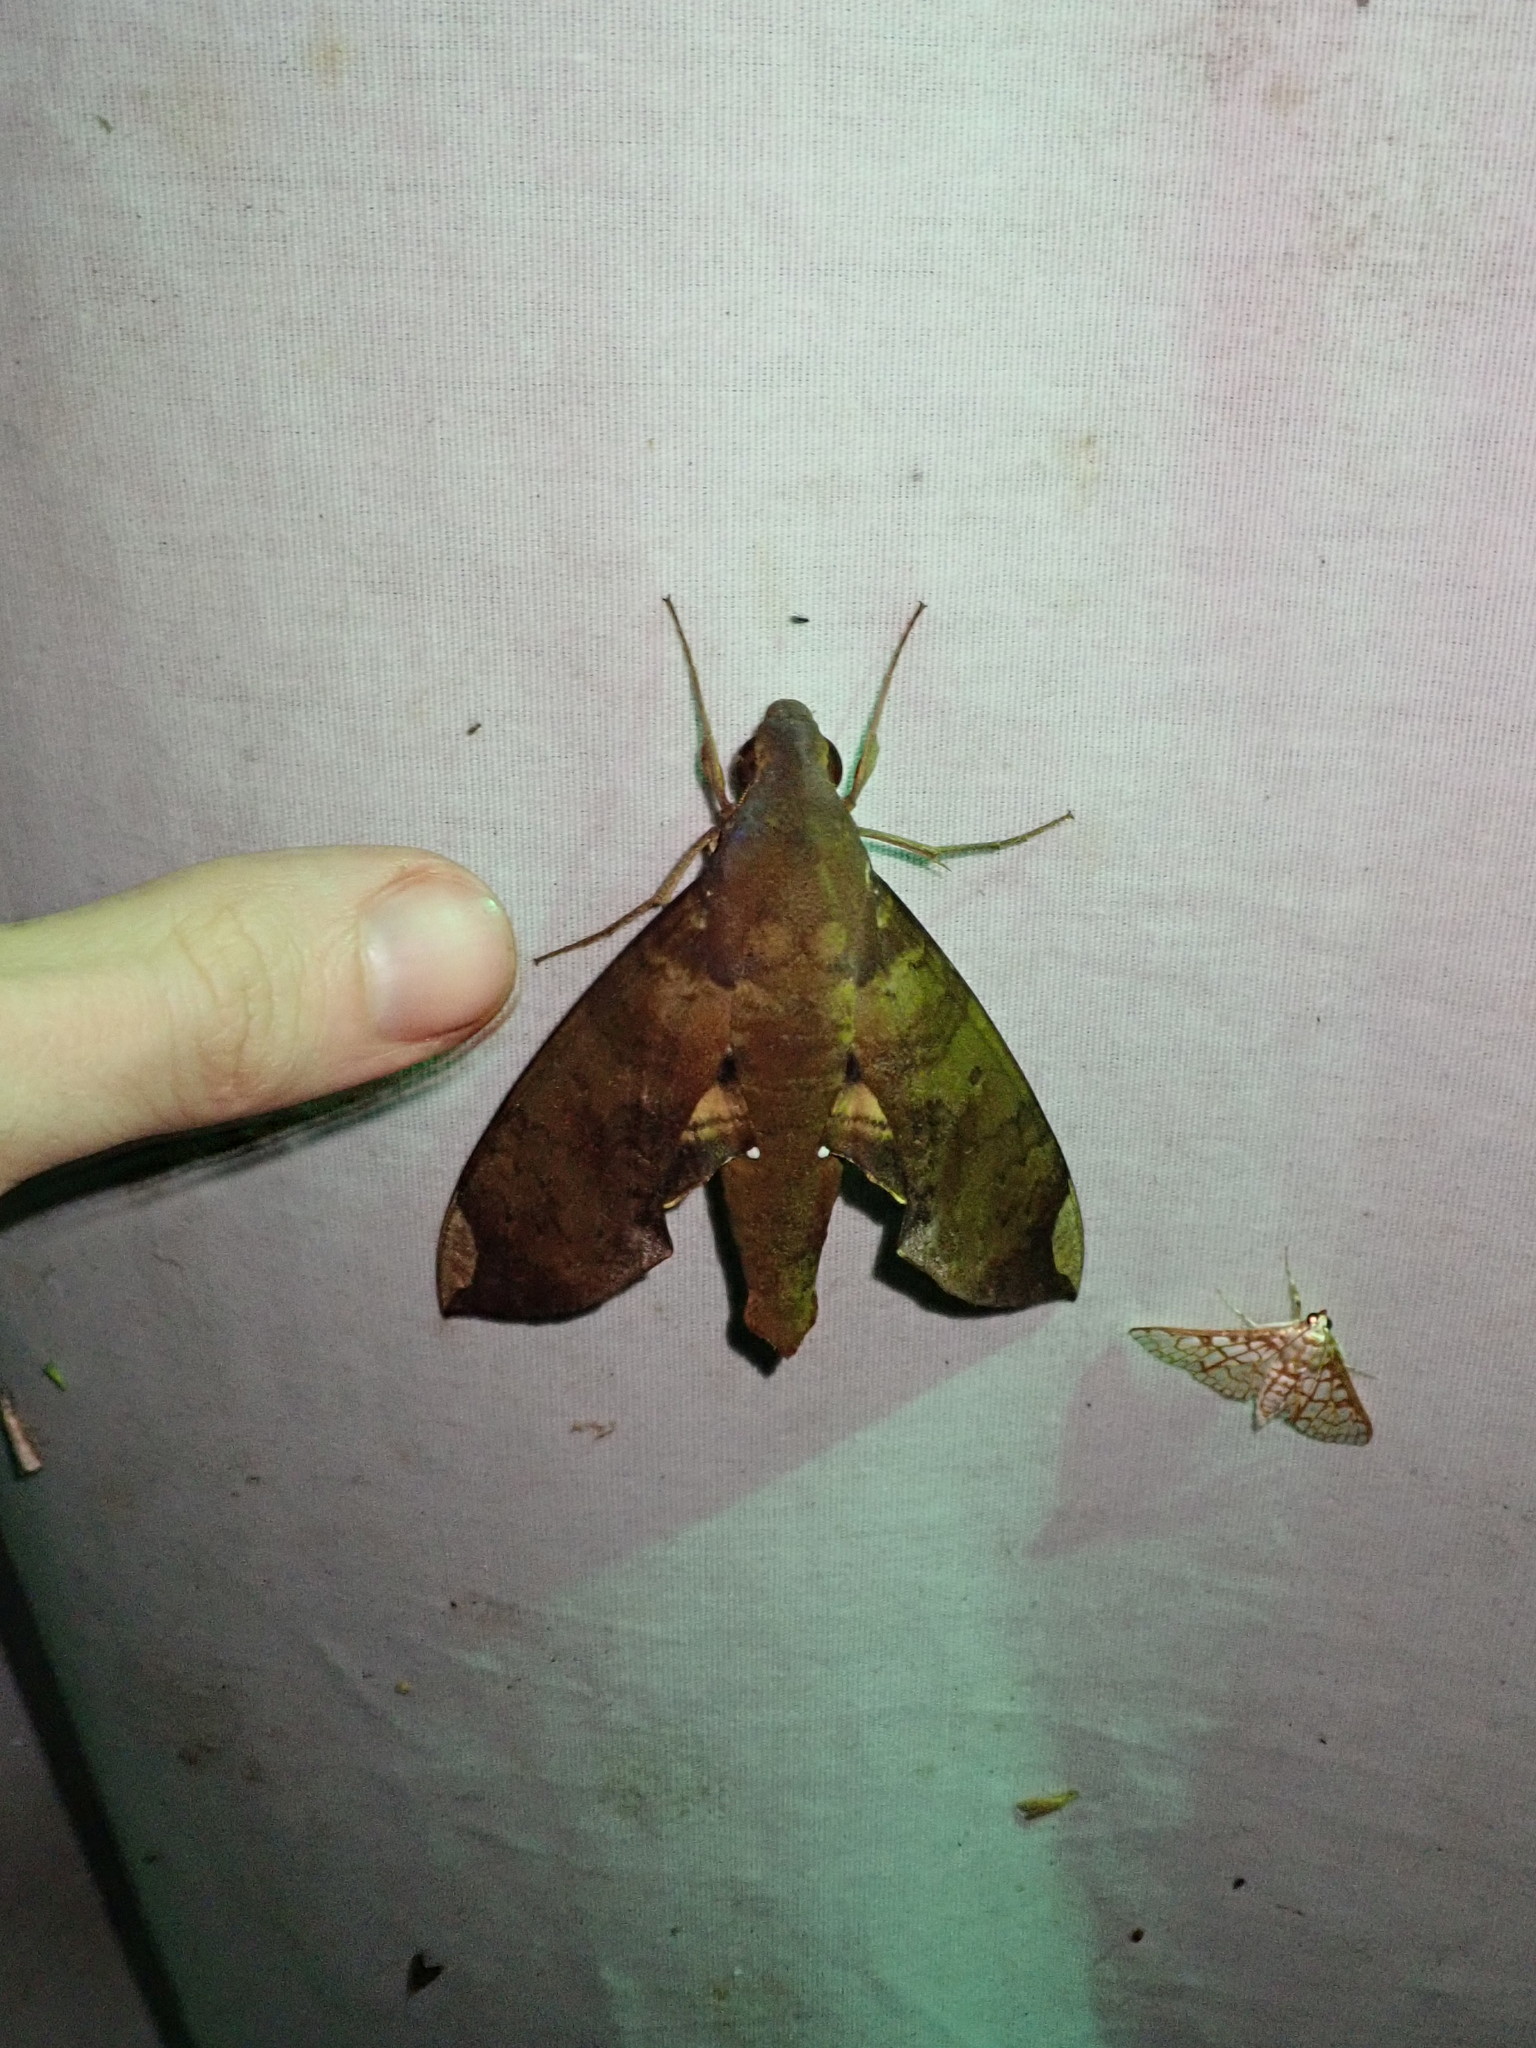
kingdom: Animalia
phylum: Arthropoda
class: Insecta
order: Lepidoptera
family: Sphingidae
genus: Pachylia
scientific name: Pachylia ficus
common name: Fig sphinx
